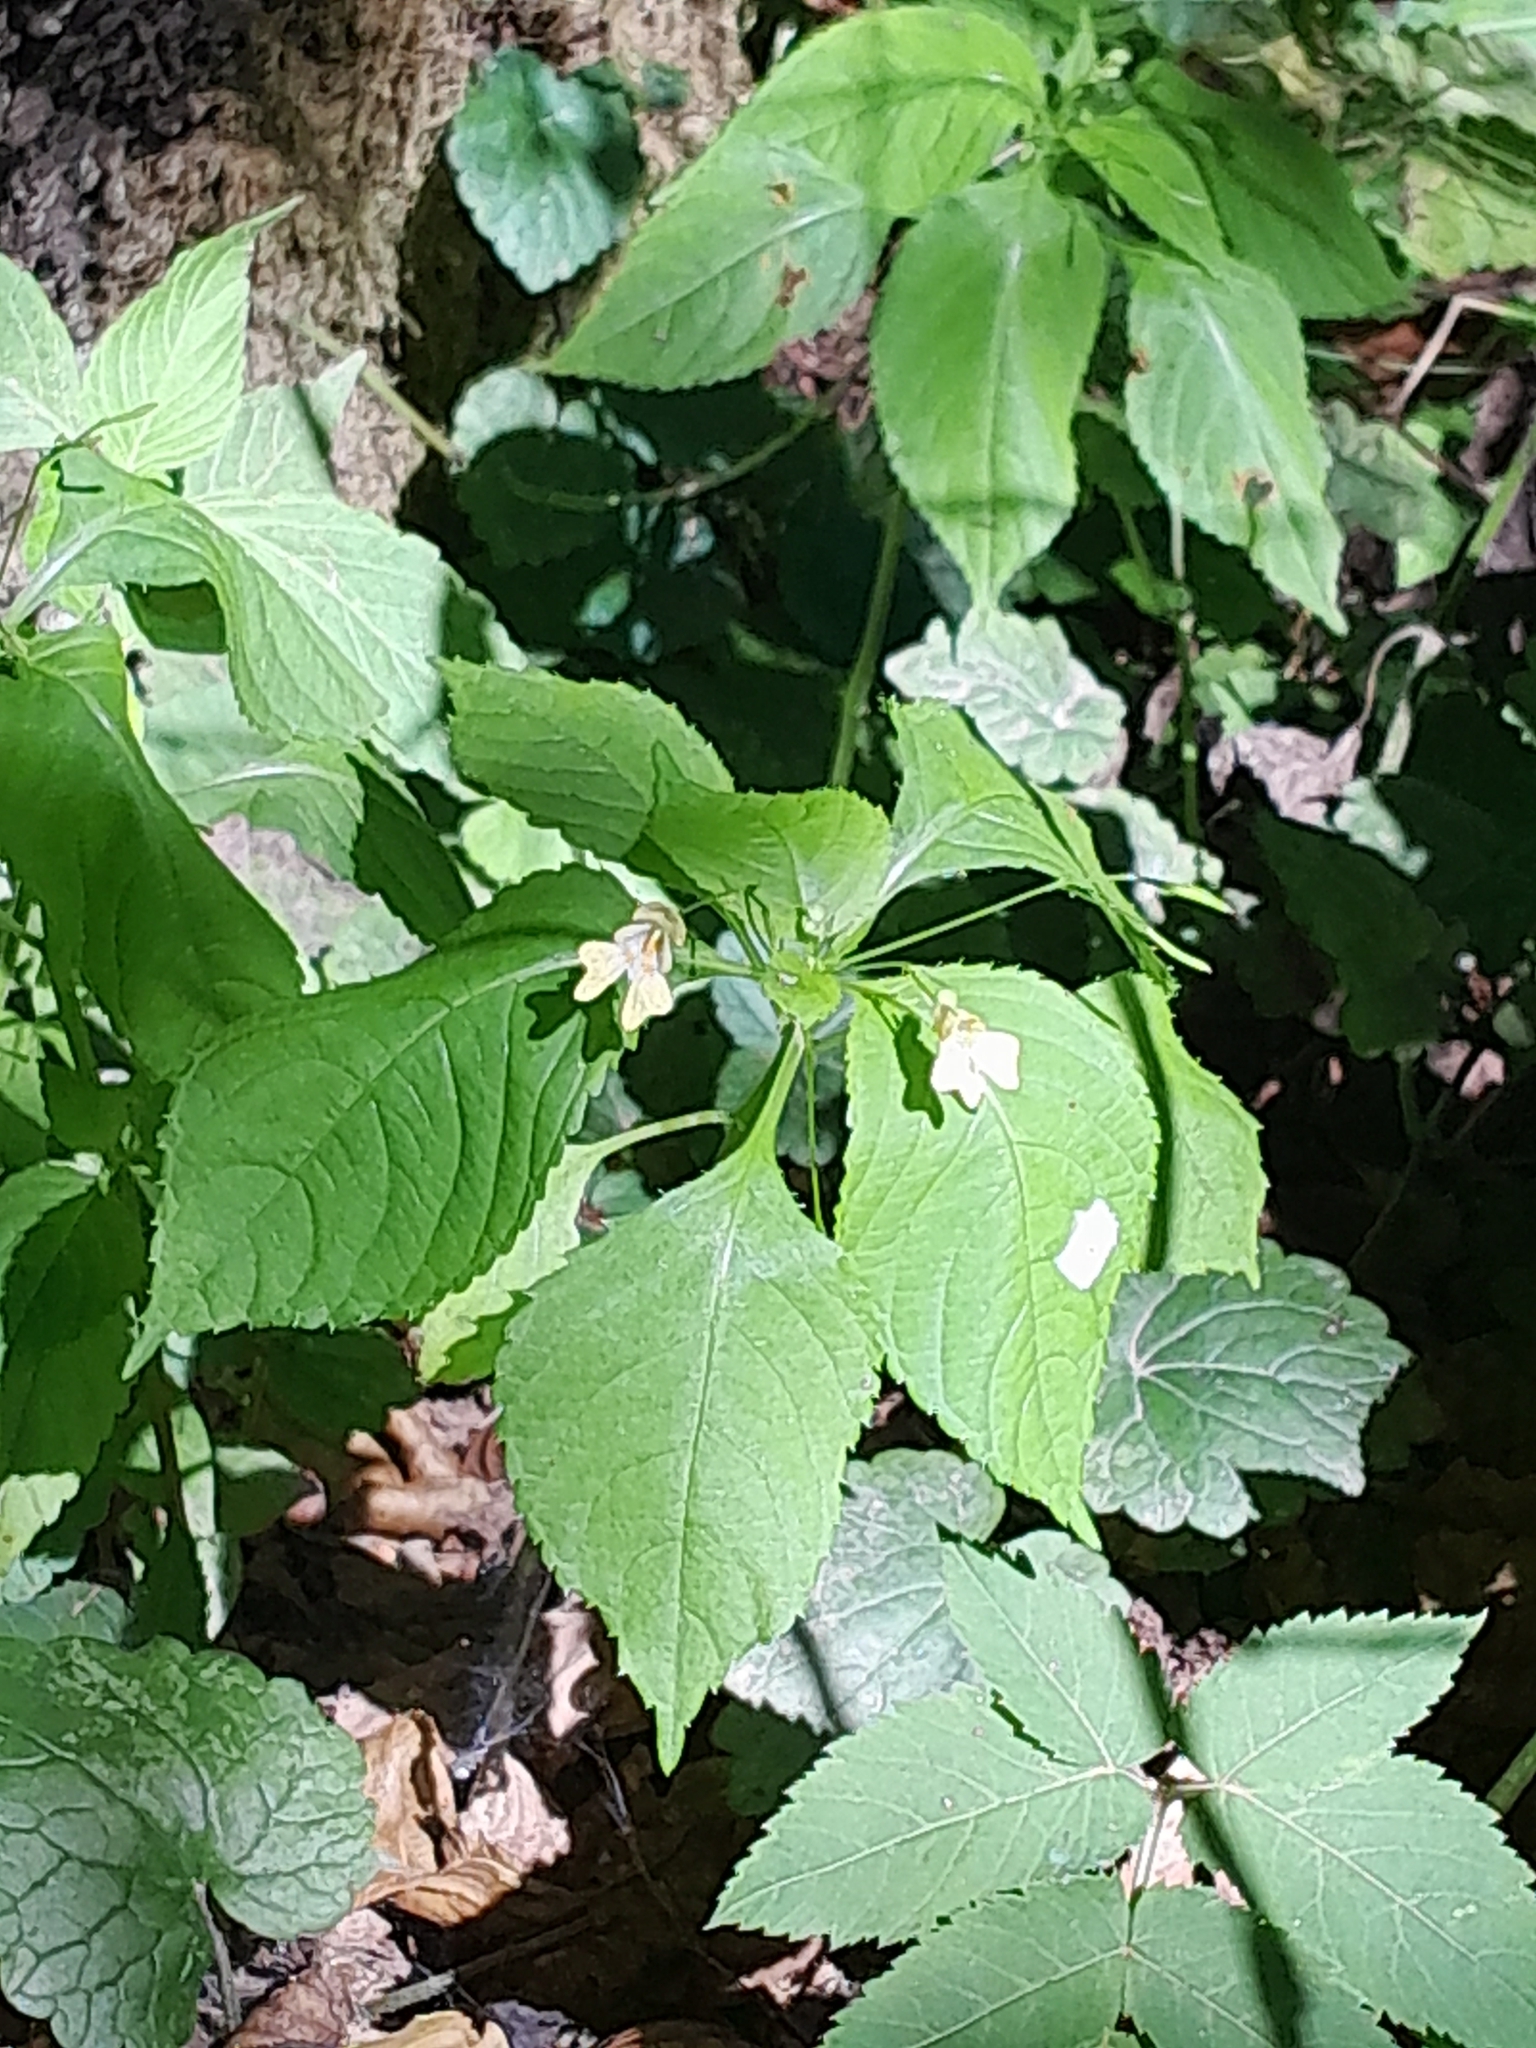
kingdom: Plantae
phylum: Tracheophyta
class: Magnoliopsida
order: Ericales
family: Balsaminaceae
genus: Impatiens
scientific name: Impatiens parviflora
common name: Small balsam
